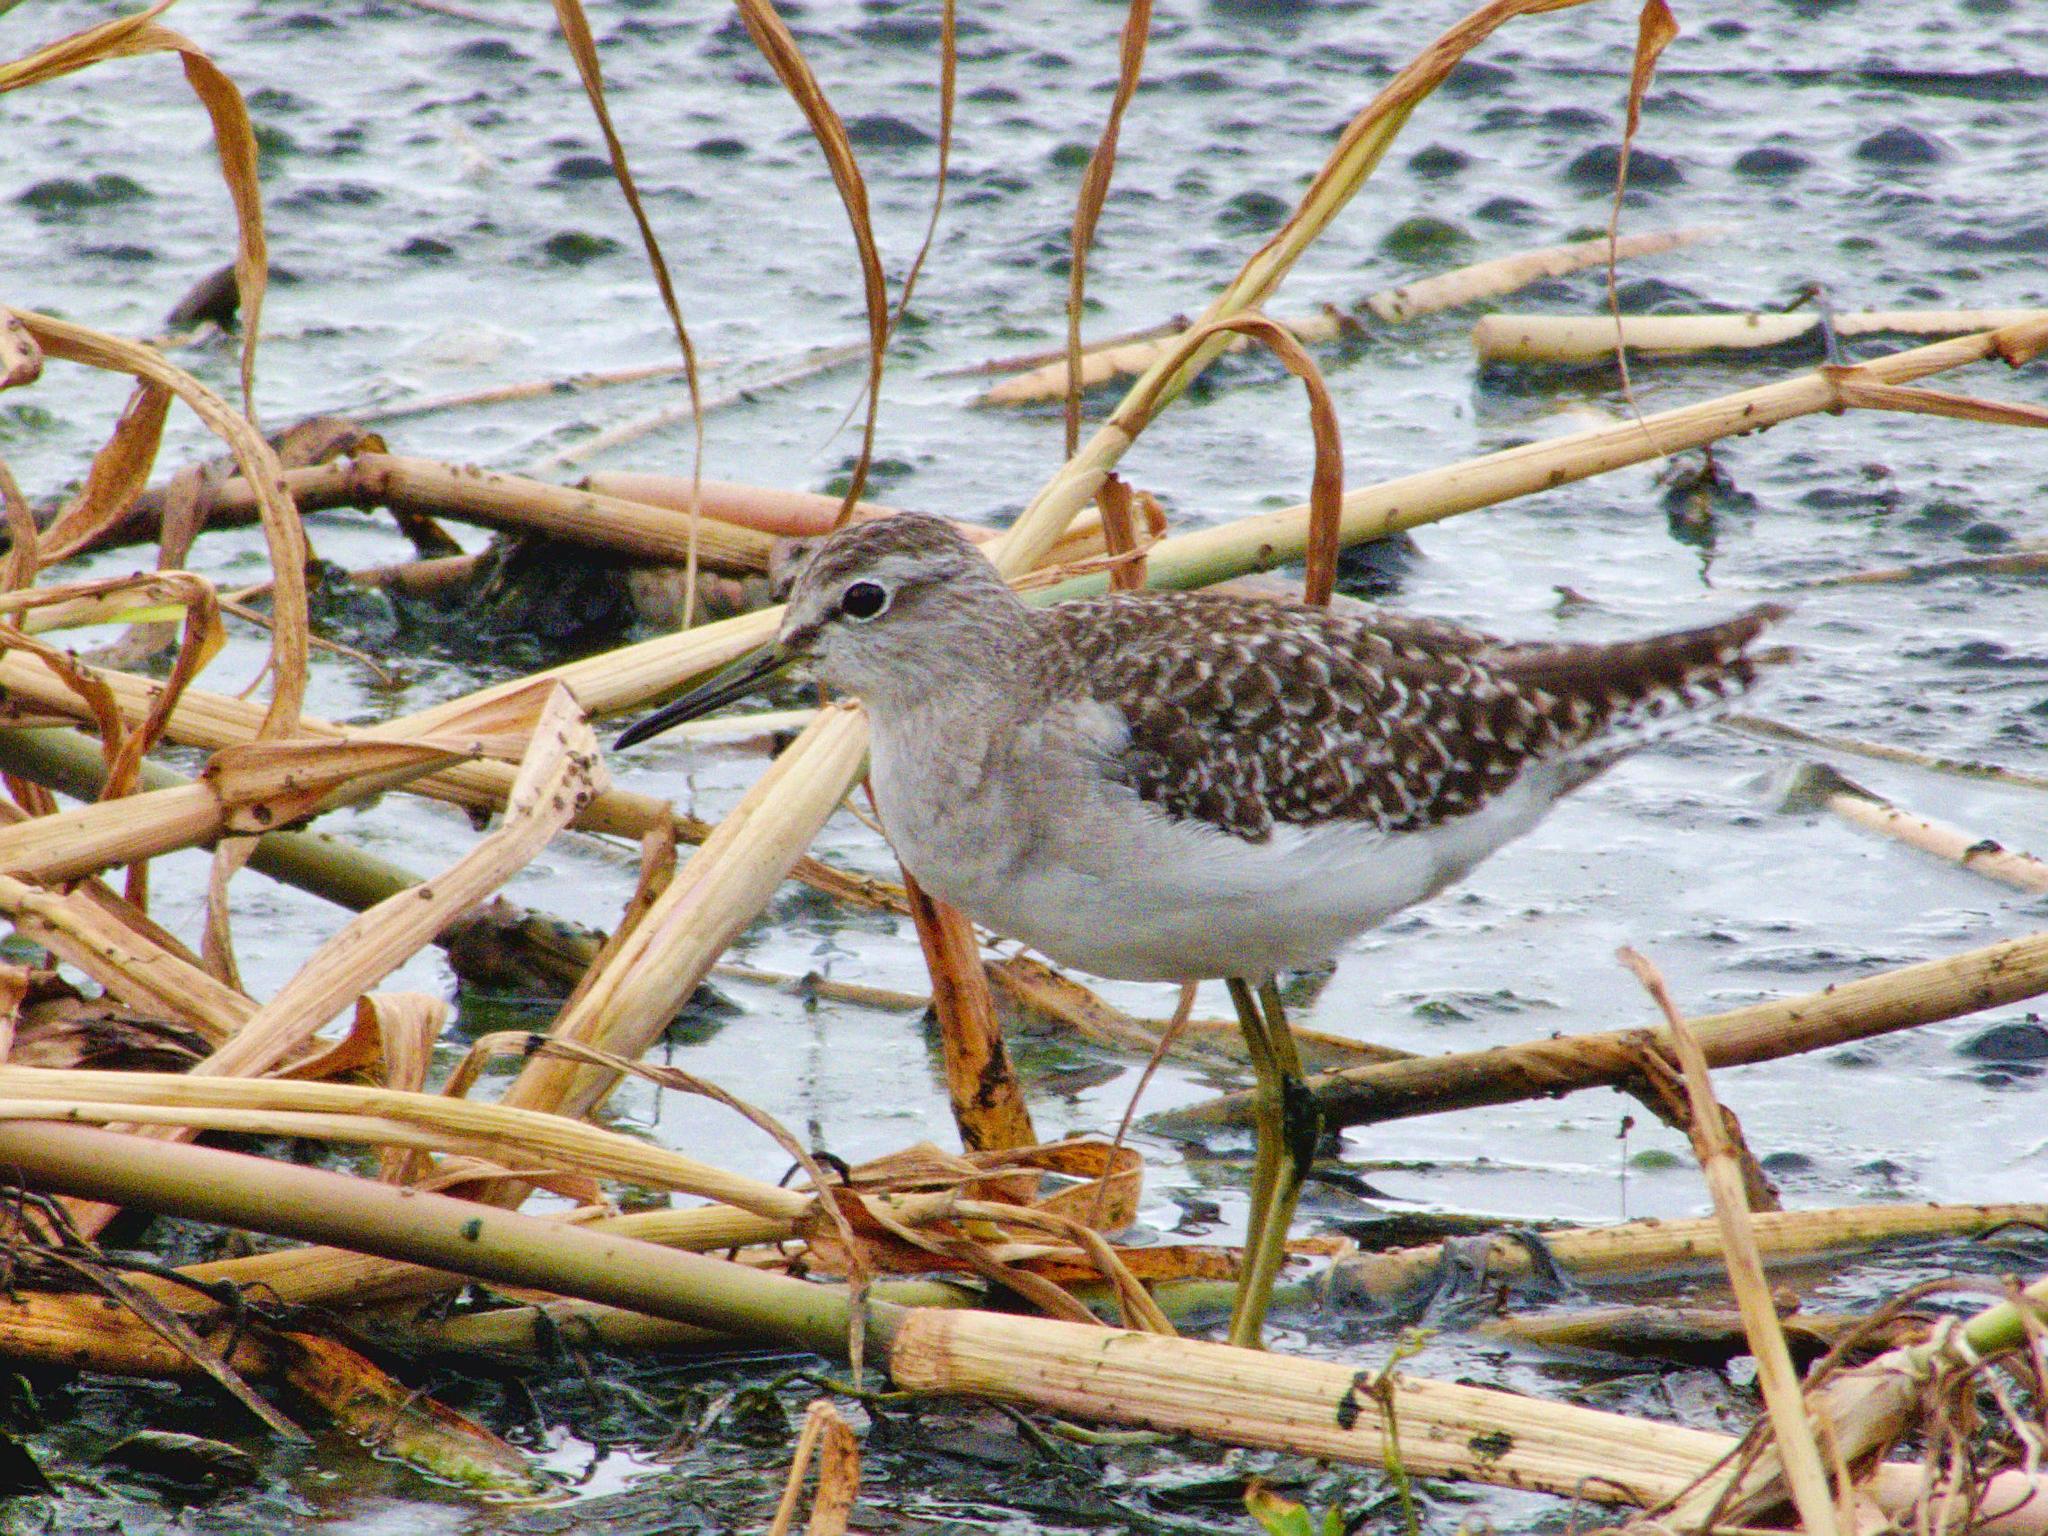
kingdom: Animalia
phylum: Chordata
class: Aves
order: Charadriiformes
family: Scolopacidae
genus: Tringa
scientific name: Tringa glareola
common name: Wood sandpiper
